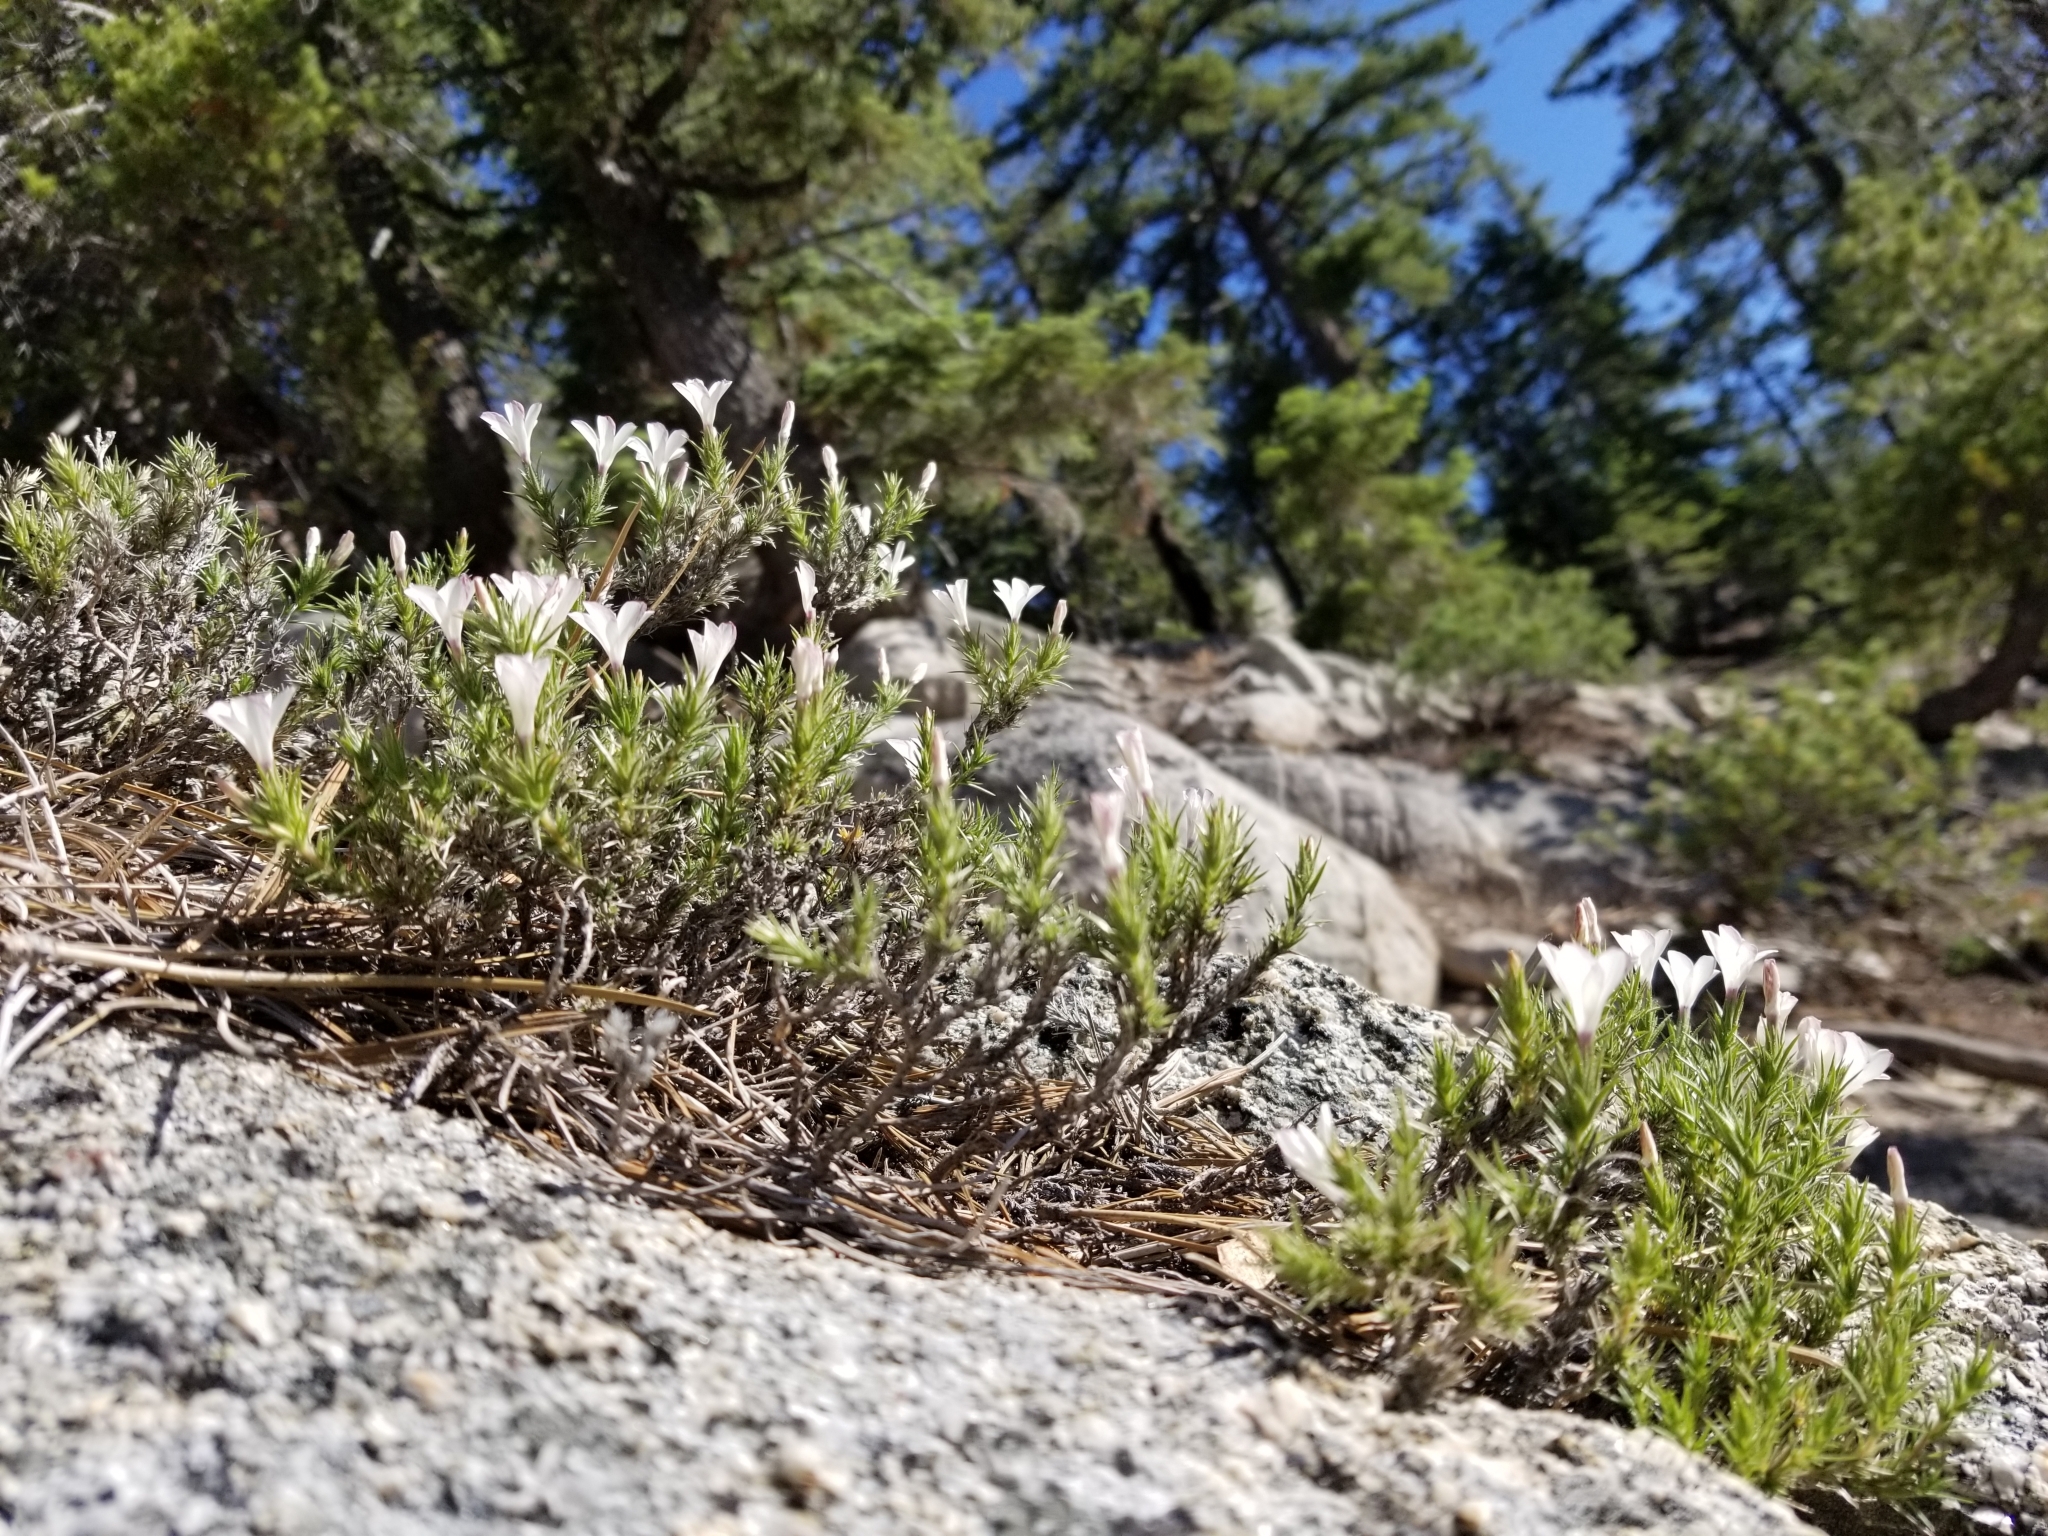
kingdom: Plantae
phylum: Tracheophyta
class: Magnoliopsida
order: Ericales
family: Polemoniaceae
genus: Linanthus
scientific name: Linanthus pungens
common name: Granite prickly phlox
